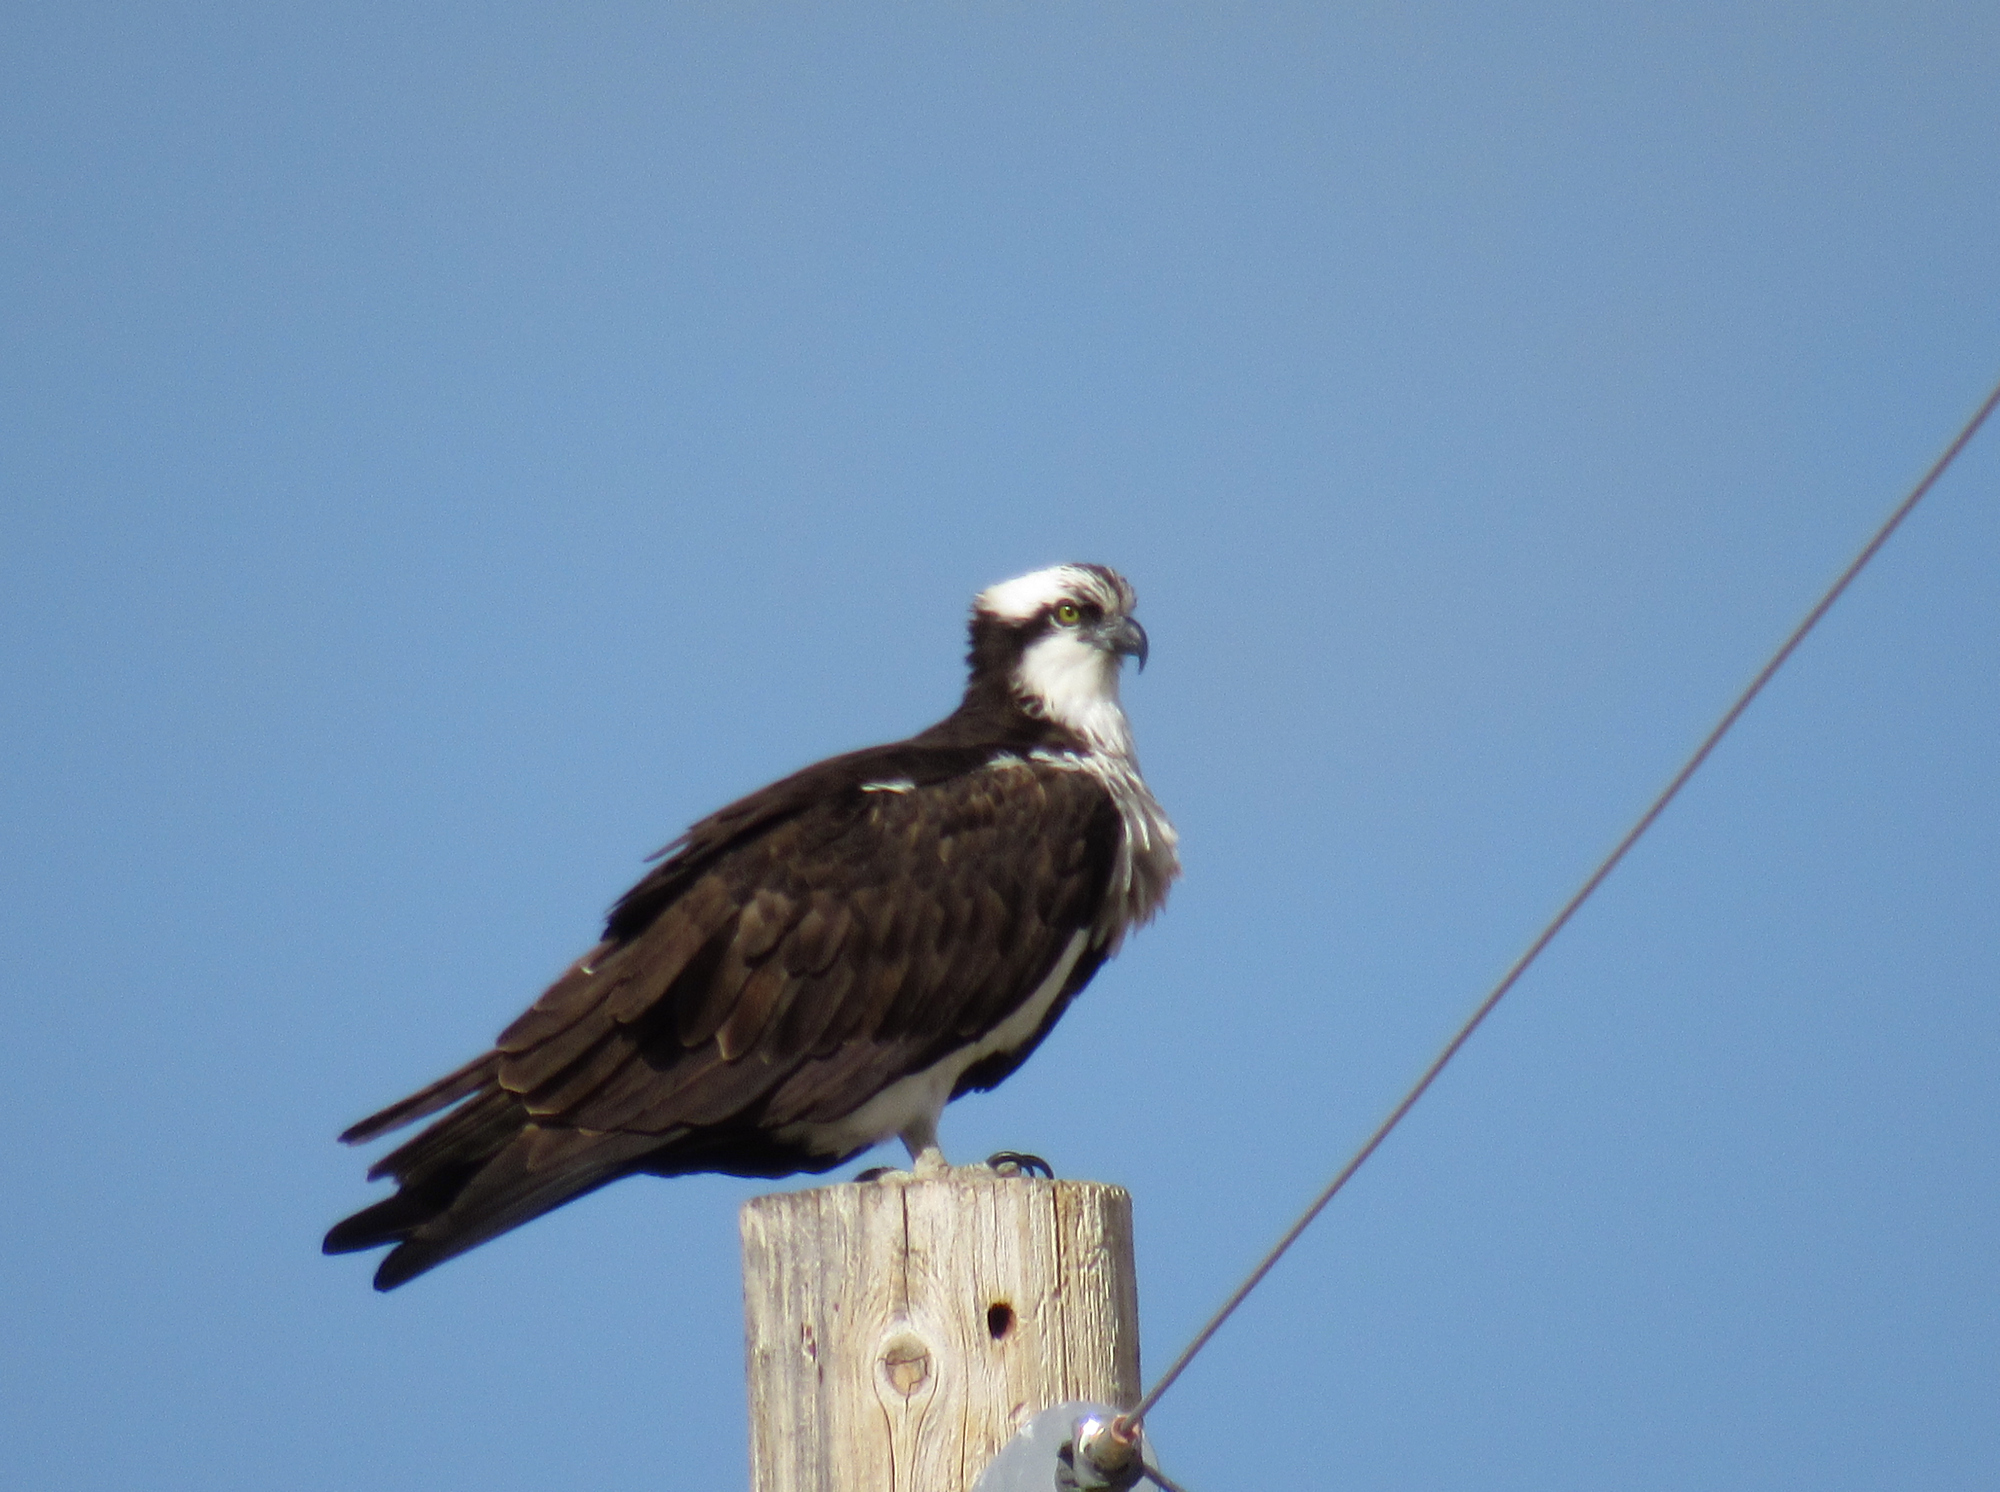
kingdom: Animalia
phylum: Chordata
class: Aves
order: Accipitriformes
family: Pandionidae
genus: Pandion
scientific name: Pandion haliaetus
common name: Osprey
